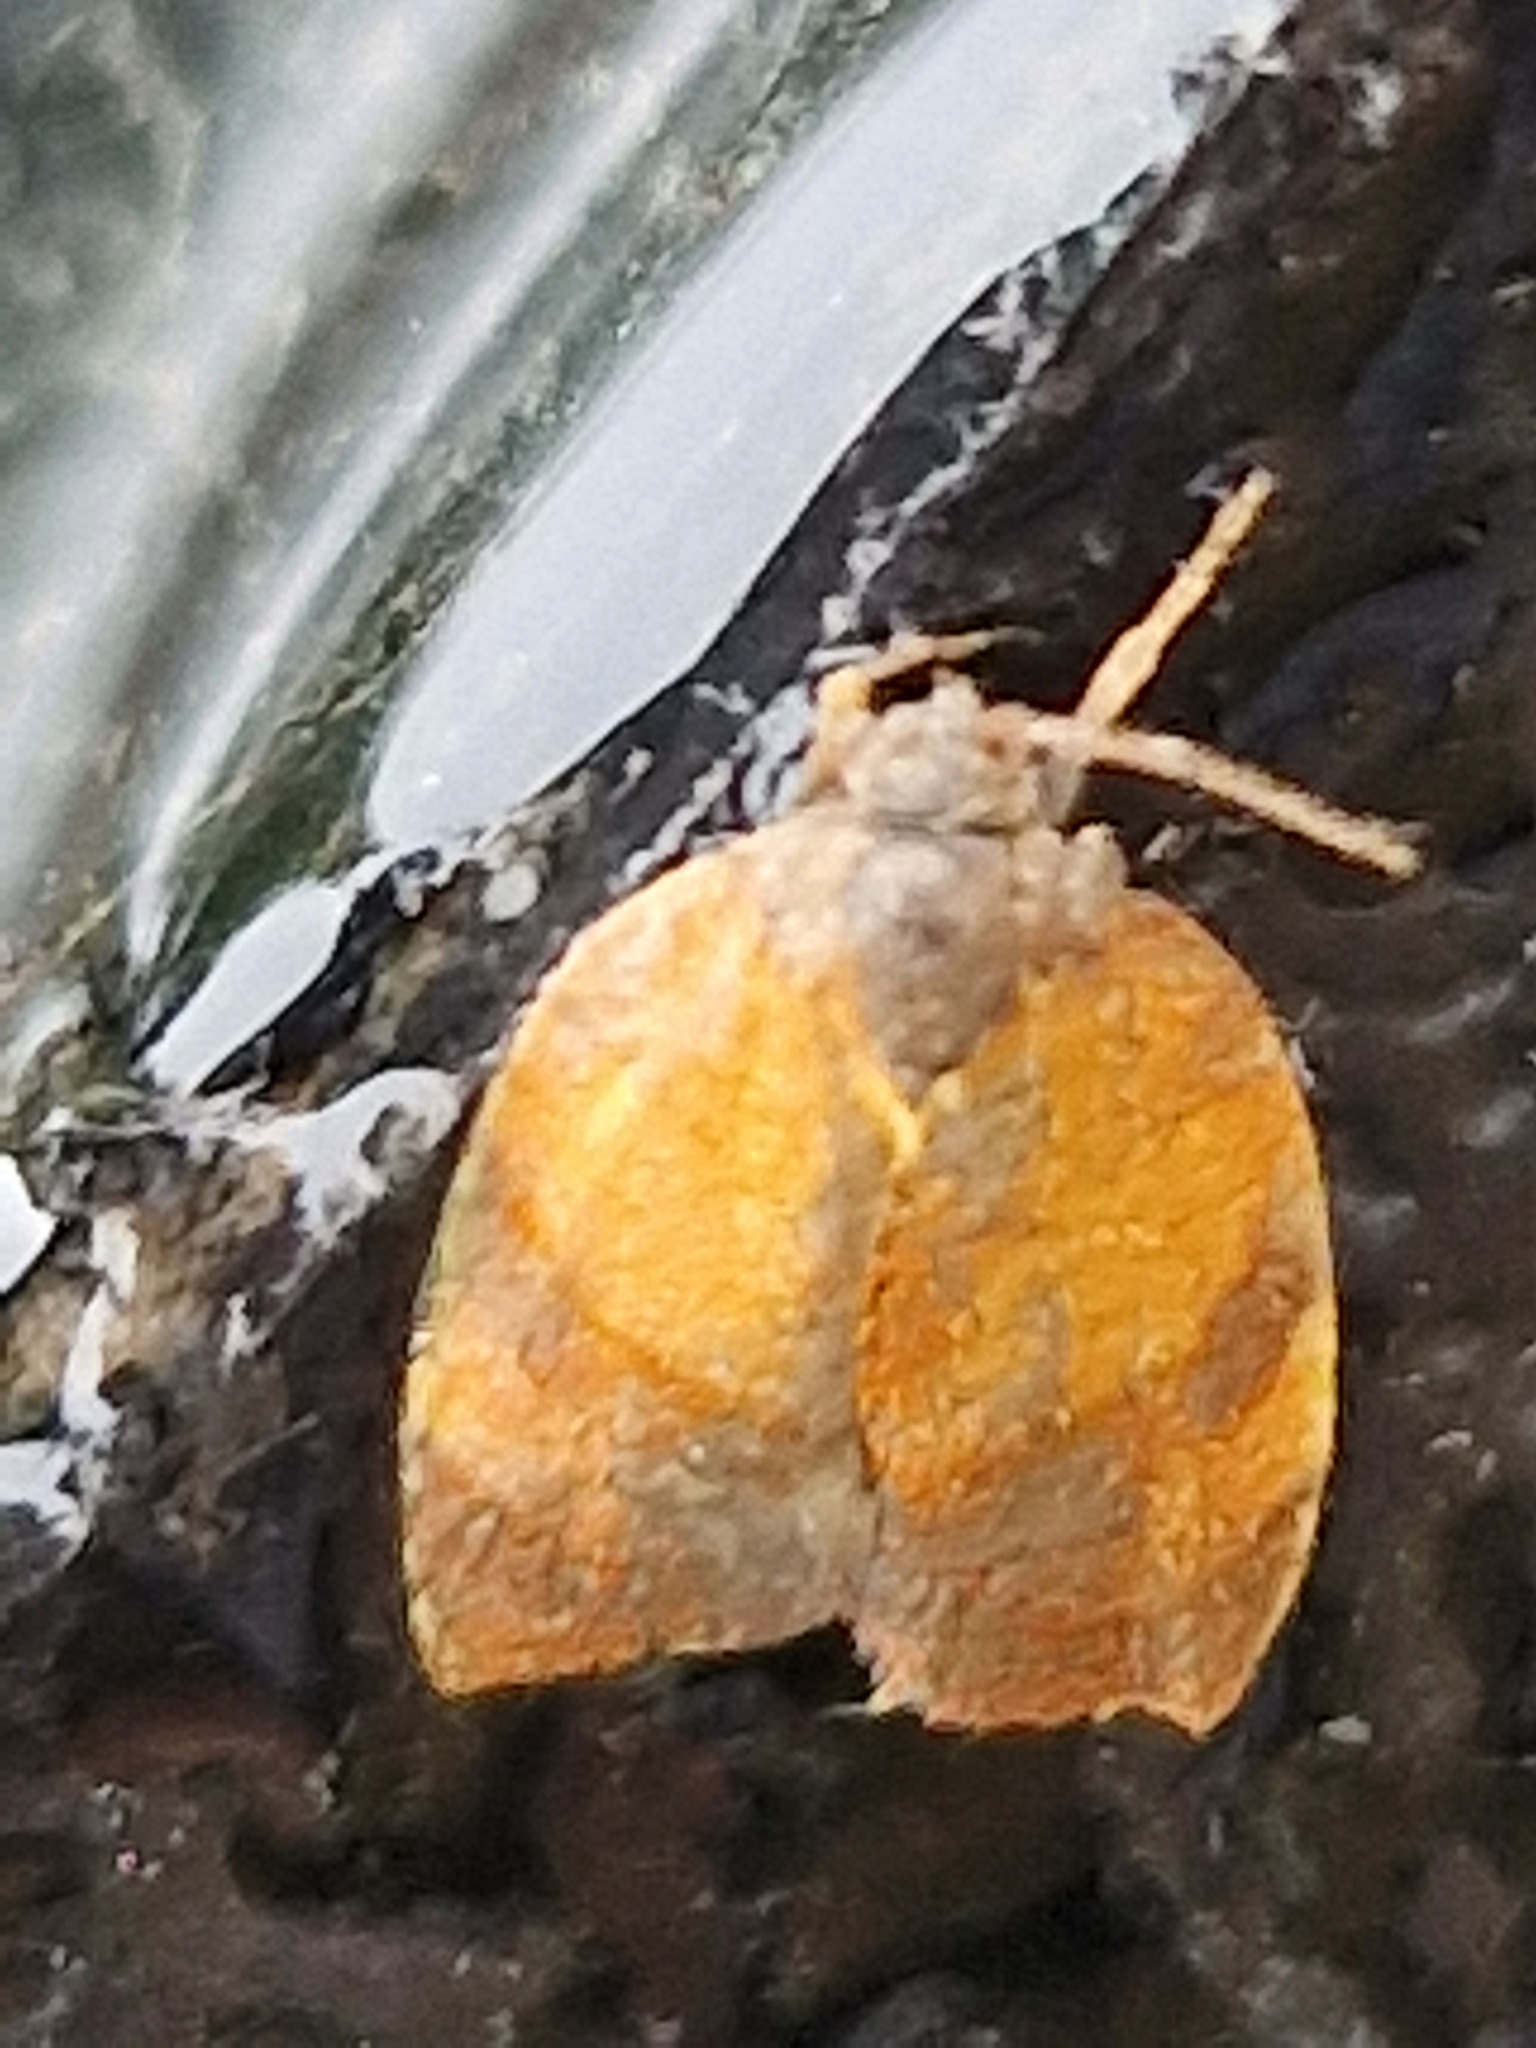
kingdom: Animalia
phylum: Arthropoda
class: Insecta
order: Lepidoptera
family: Tortricidae
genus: Cacoecimorpha
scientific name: Cacoecimorpha pronubana
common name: Carnation tortrix
